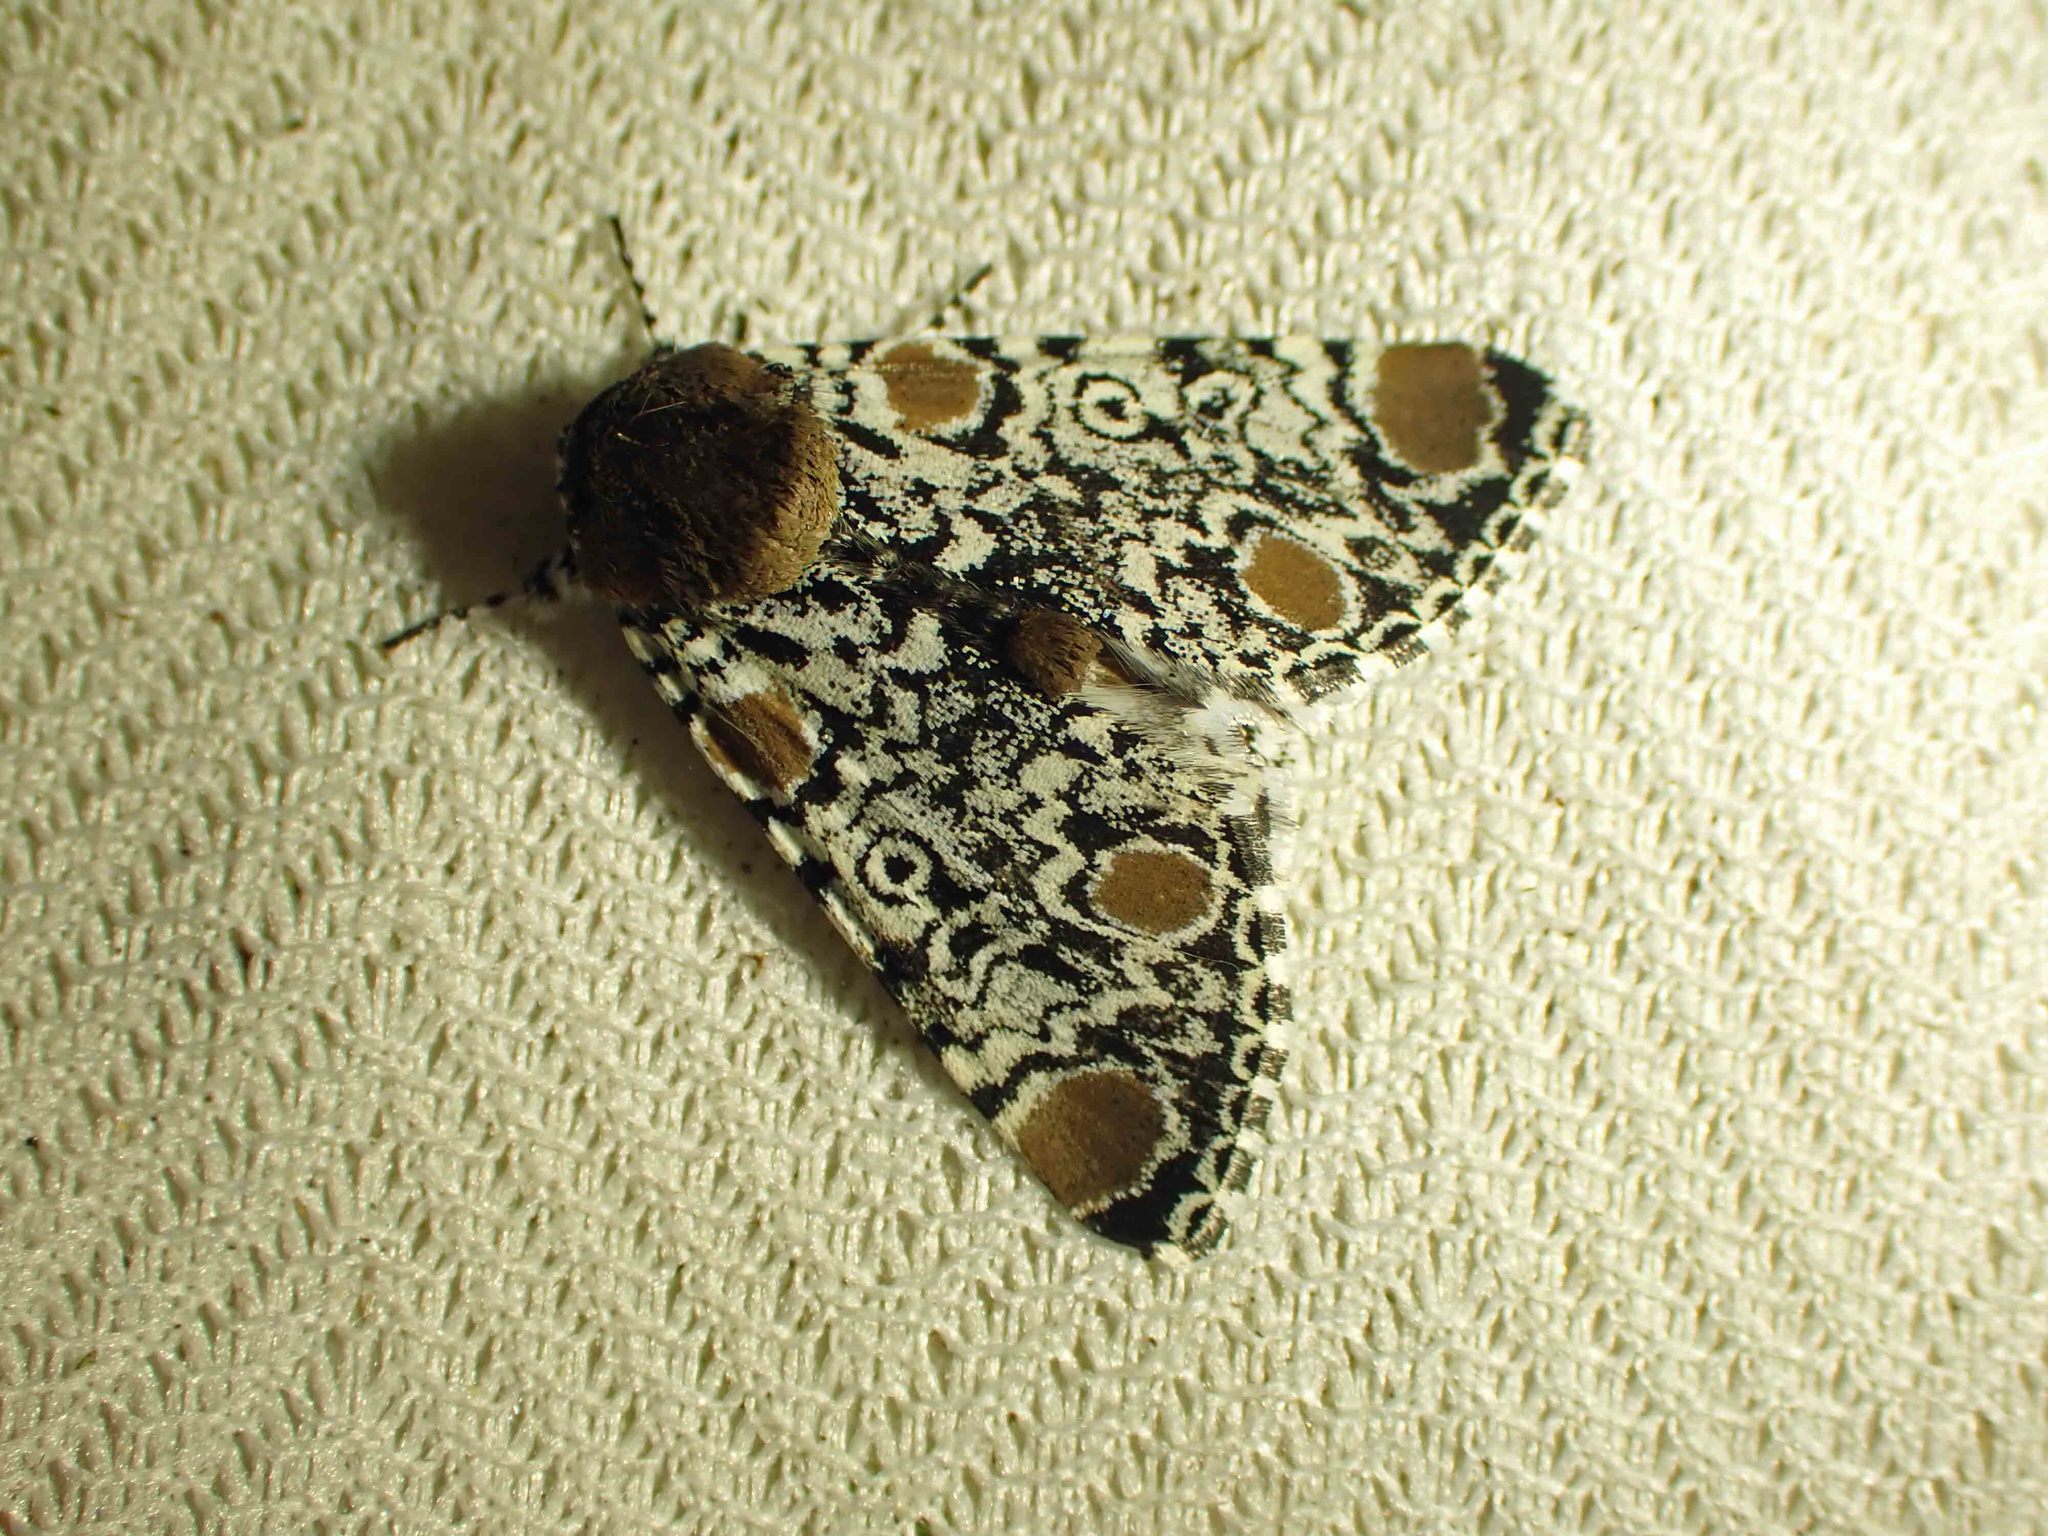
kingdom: Animalia
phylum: Arthropoda
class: Insecta
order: Lepidoptera
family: Noctuidae
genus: Harrisimemna
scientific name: Harrisimemna trisignata
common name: Harris threespot
